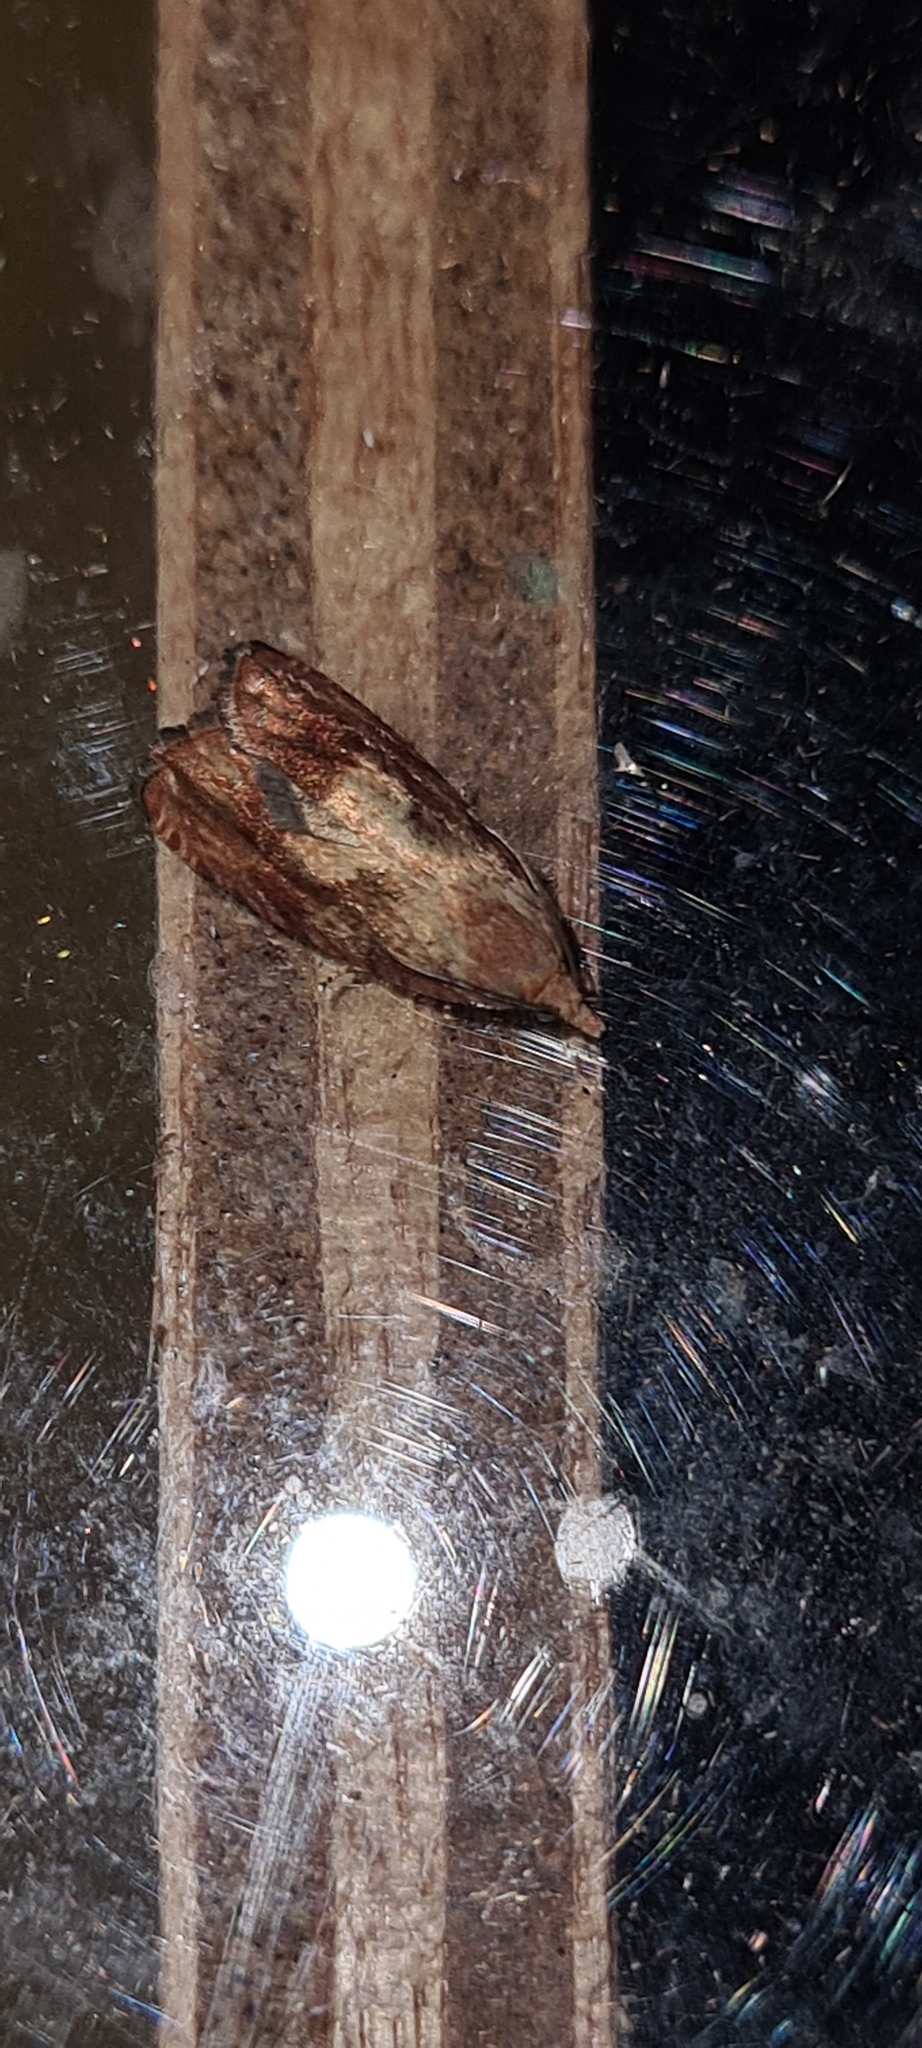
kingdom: Animalia
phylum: Arthropoda
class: Insecta
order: Lepidoptera
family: Tortricidae
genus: Cydia
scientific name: Cydia amplana
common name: Vagrant piercer
